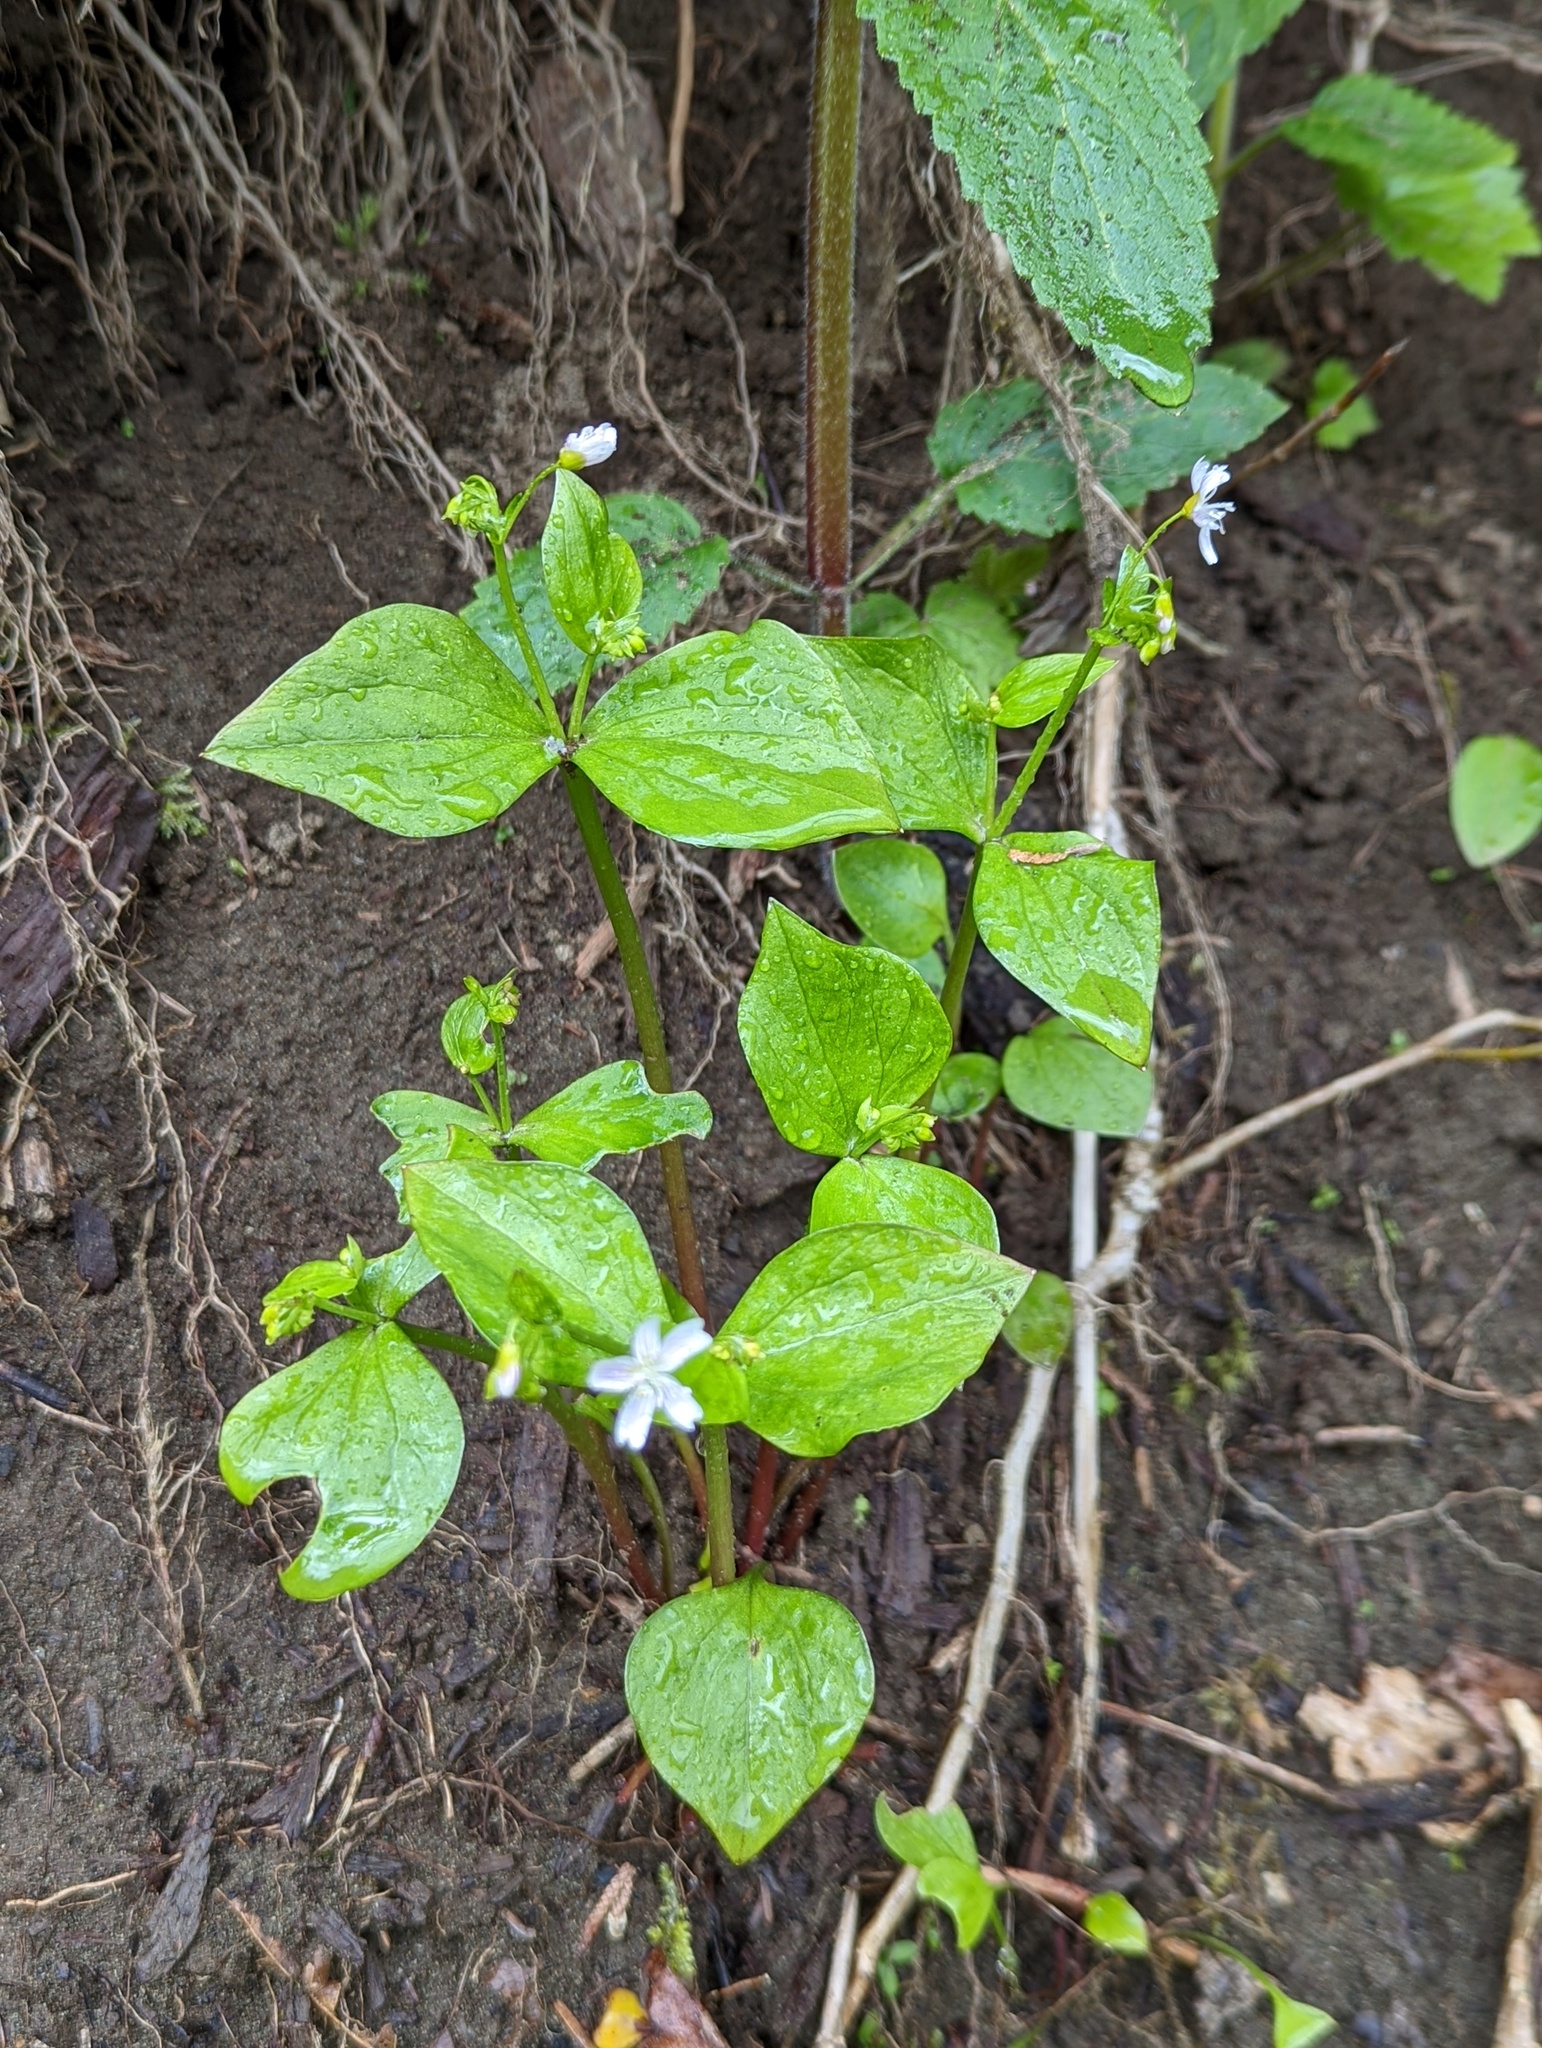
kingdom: Plantae
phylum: Tracheophyta
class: Magnoliopsida
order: Caryophyllales
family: Montiaceae
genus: Claytonia
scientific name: Claytonia sibirica
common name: Pink purslane
